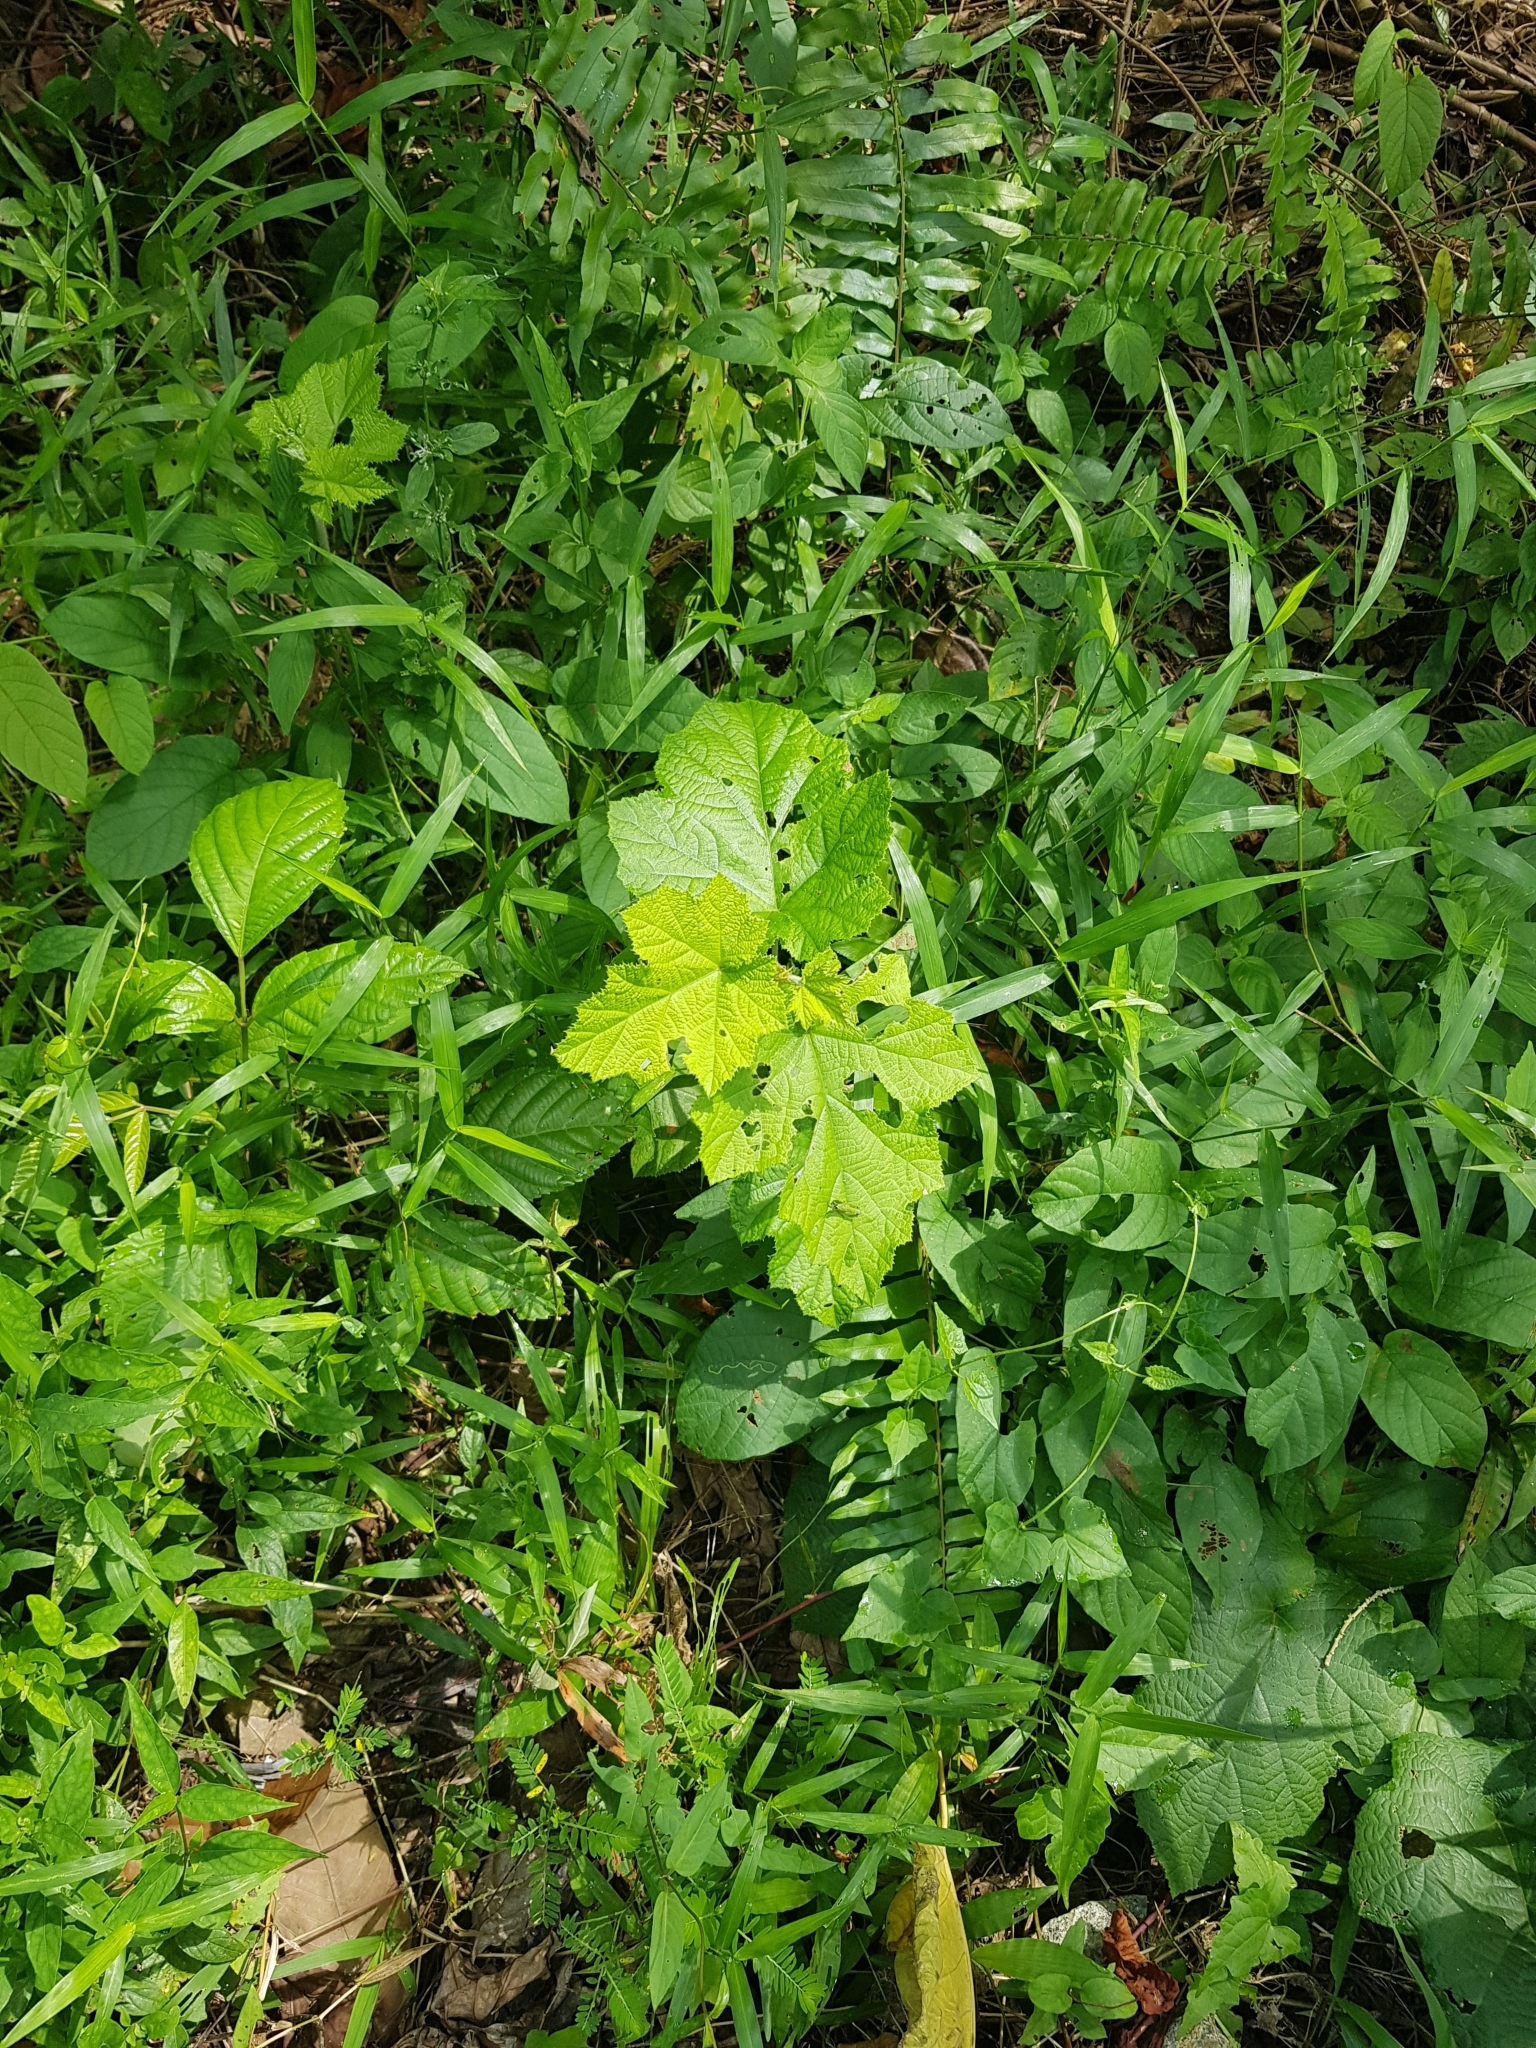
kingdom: Plantae
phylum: Tracheophyta
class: Magnoliopsida
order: Rosales
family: Rosaceae
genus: Rubus
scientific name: Rubus moluccanus
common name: Wild raspberry
